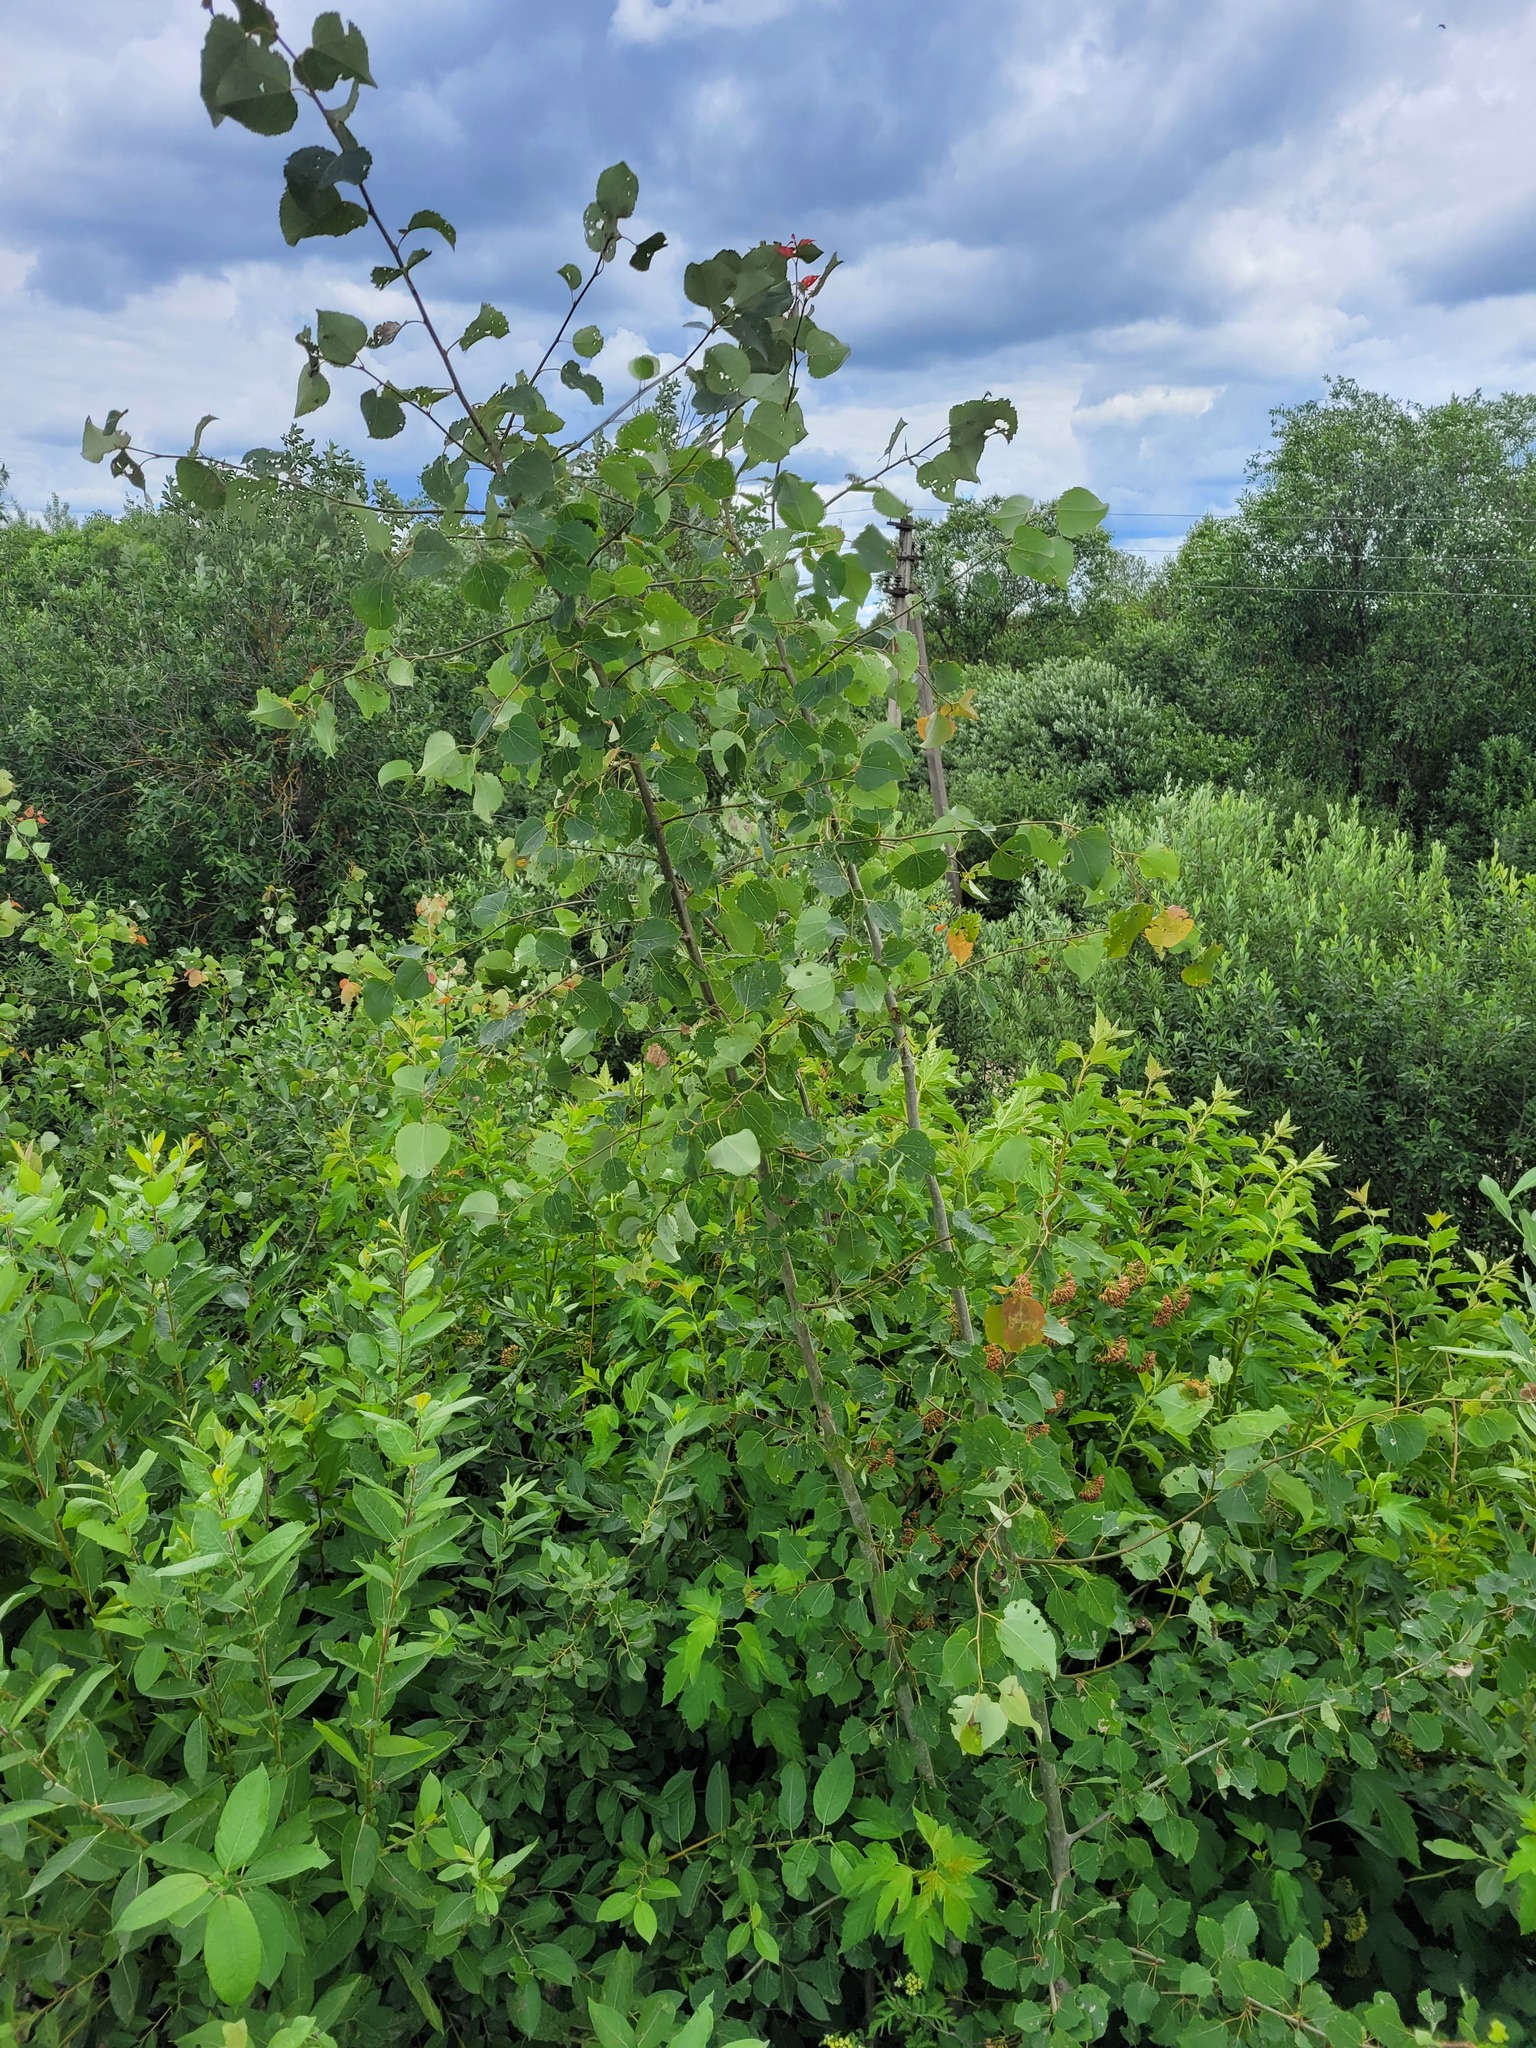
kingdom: Plantae
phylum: Tracheophyta
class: Magnoliopsida
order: Malpighiales
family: Salicaceae
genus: Populus
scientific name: Populus tremula
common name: European aspen
